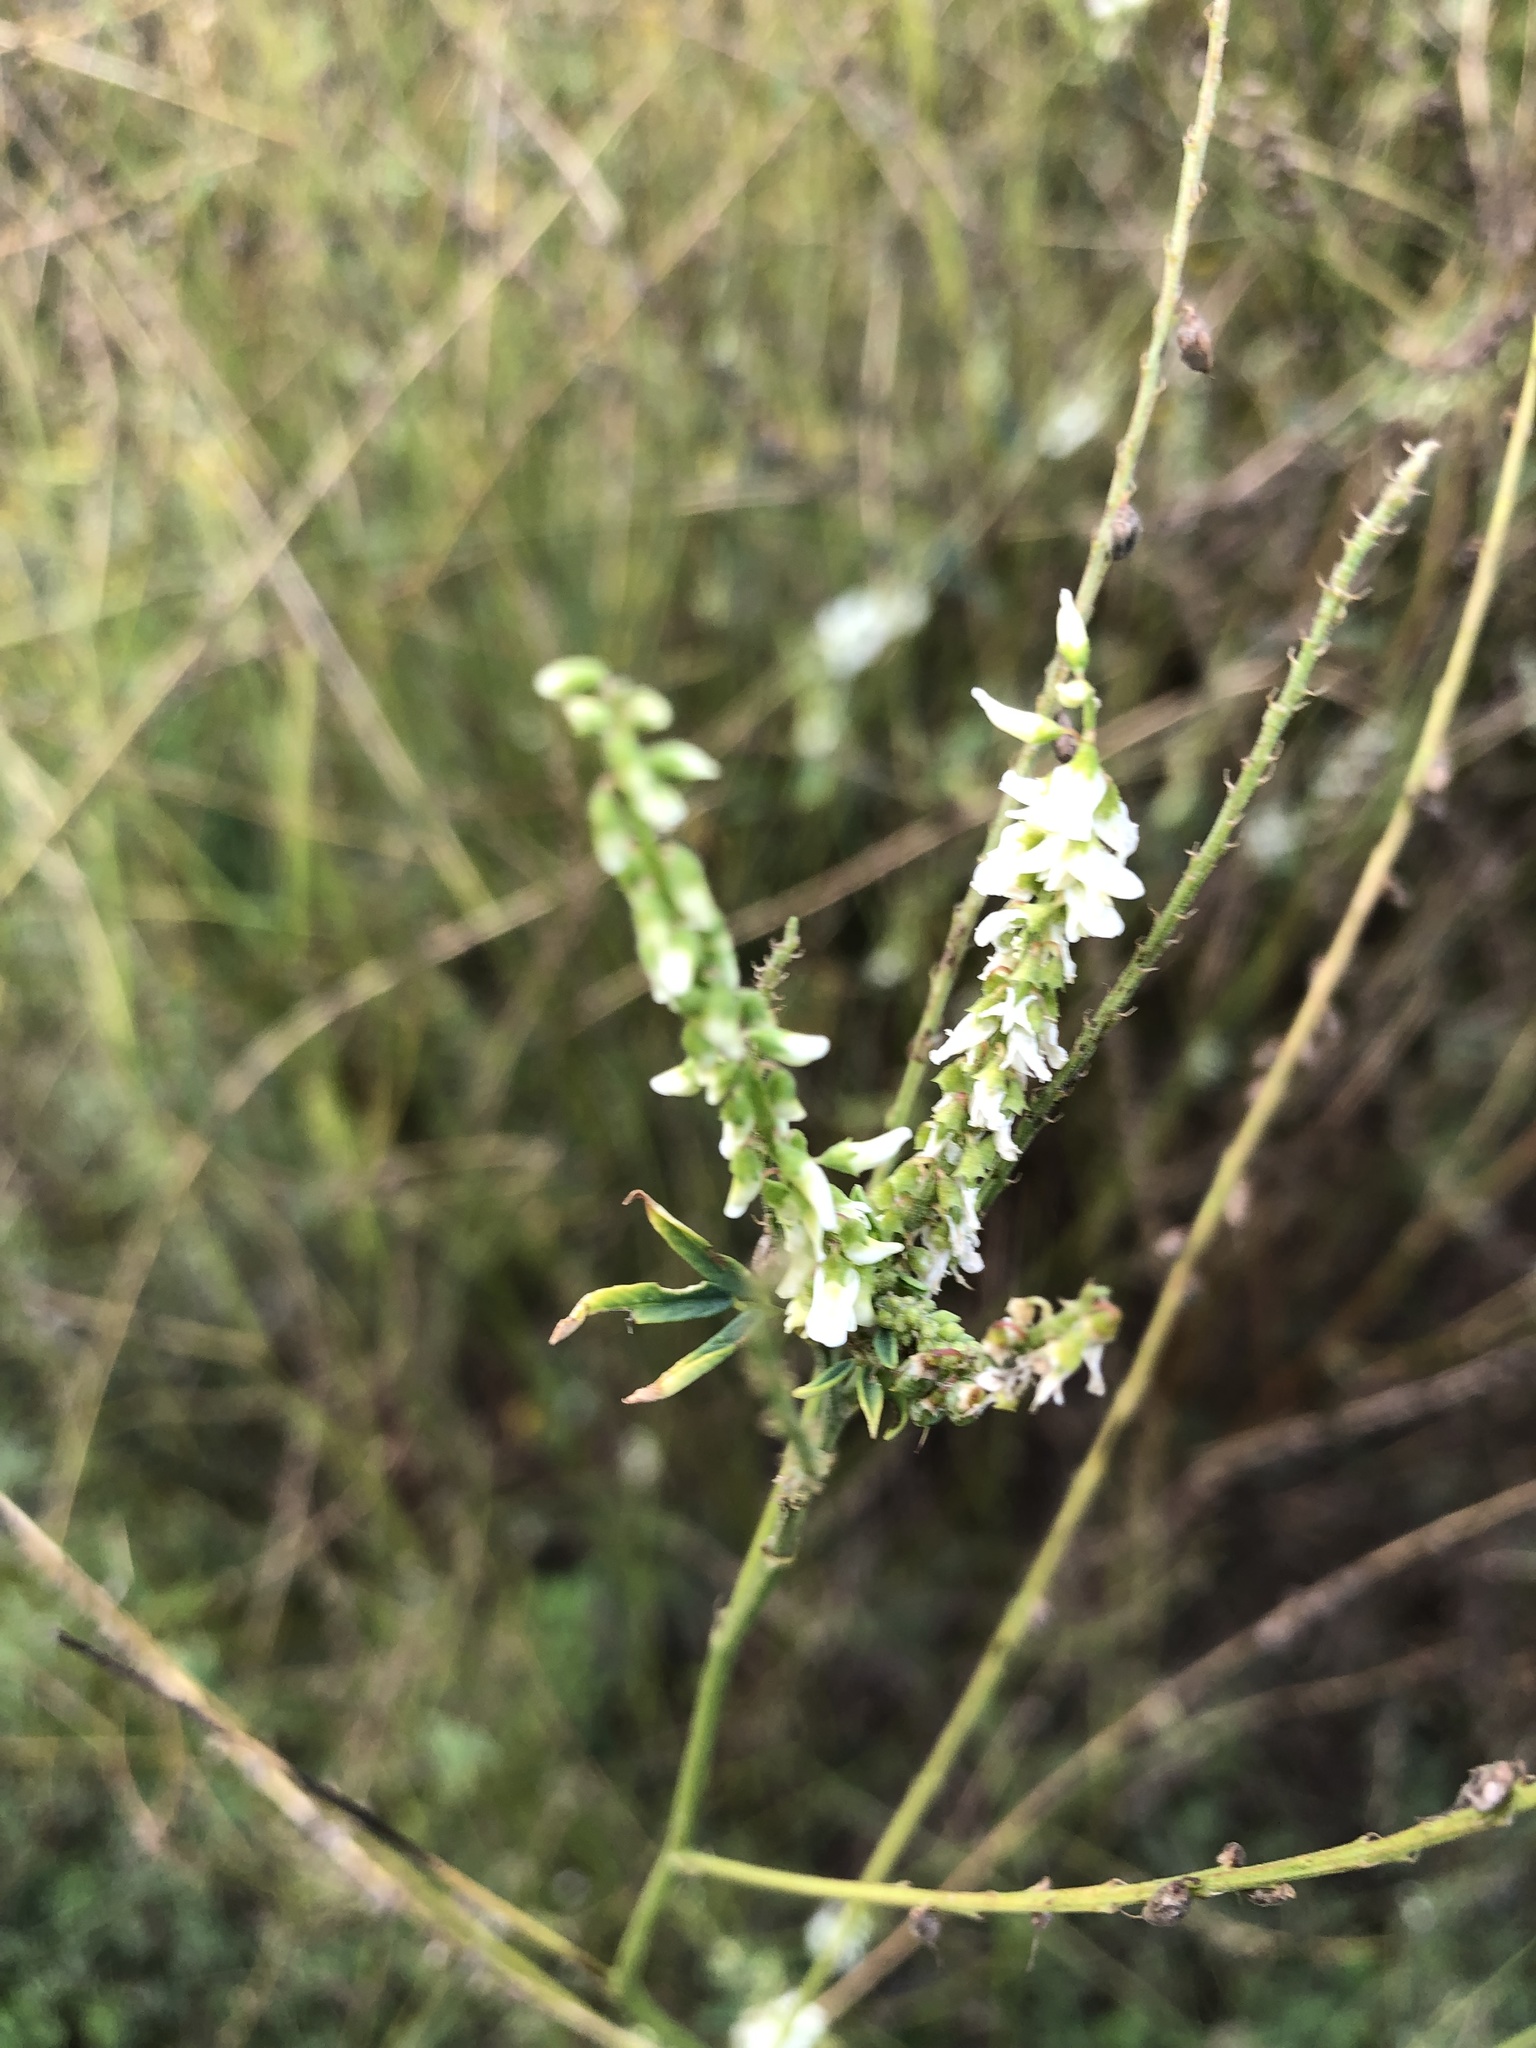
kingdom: Plantae
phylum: Tracheophyta
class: Magnoliopsida
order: Fabales
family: Fabaceae
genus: Melilotus
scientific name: Melilotus albus
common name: White melilot
